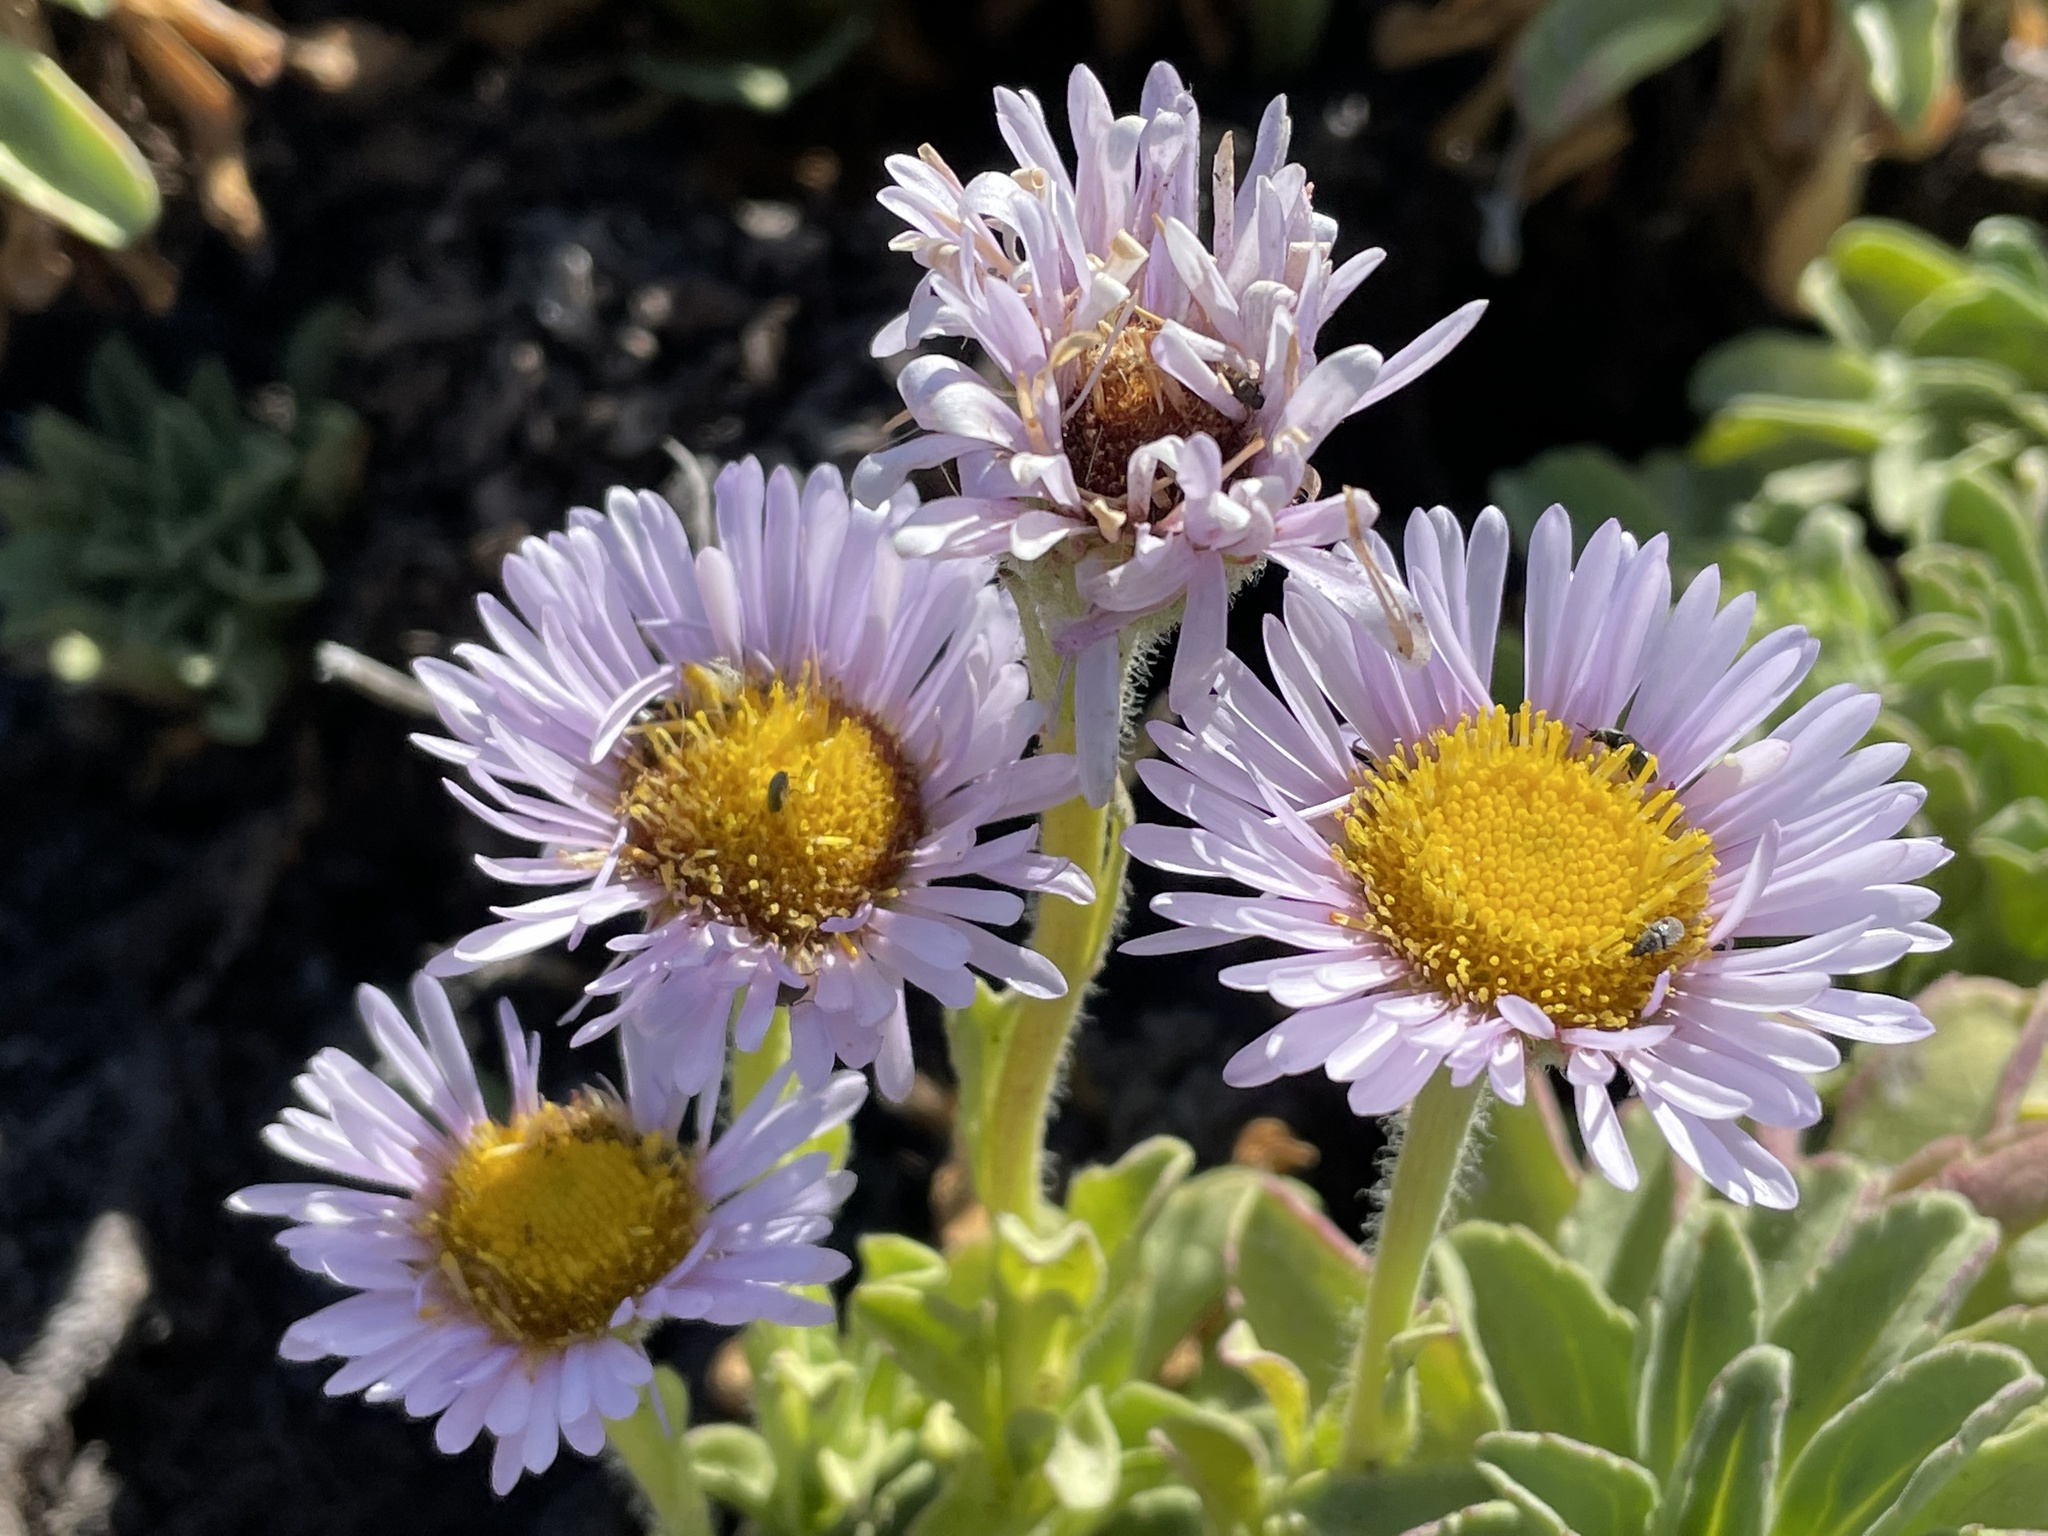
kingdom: Plantae
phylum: Tracheophyta
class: Magnoliopsida
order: Asterales
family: Asteraceae
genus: Erigeron
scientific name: Erigeron glaucus
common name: Seaside daisy
